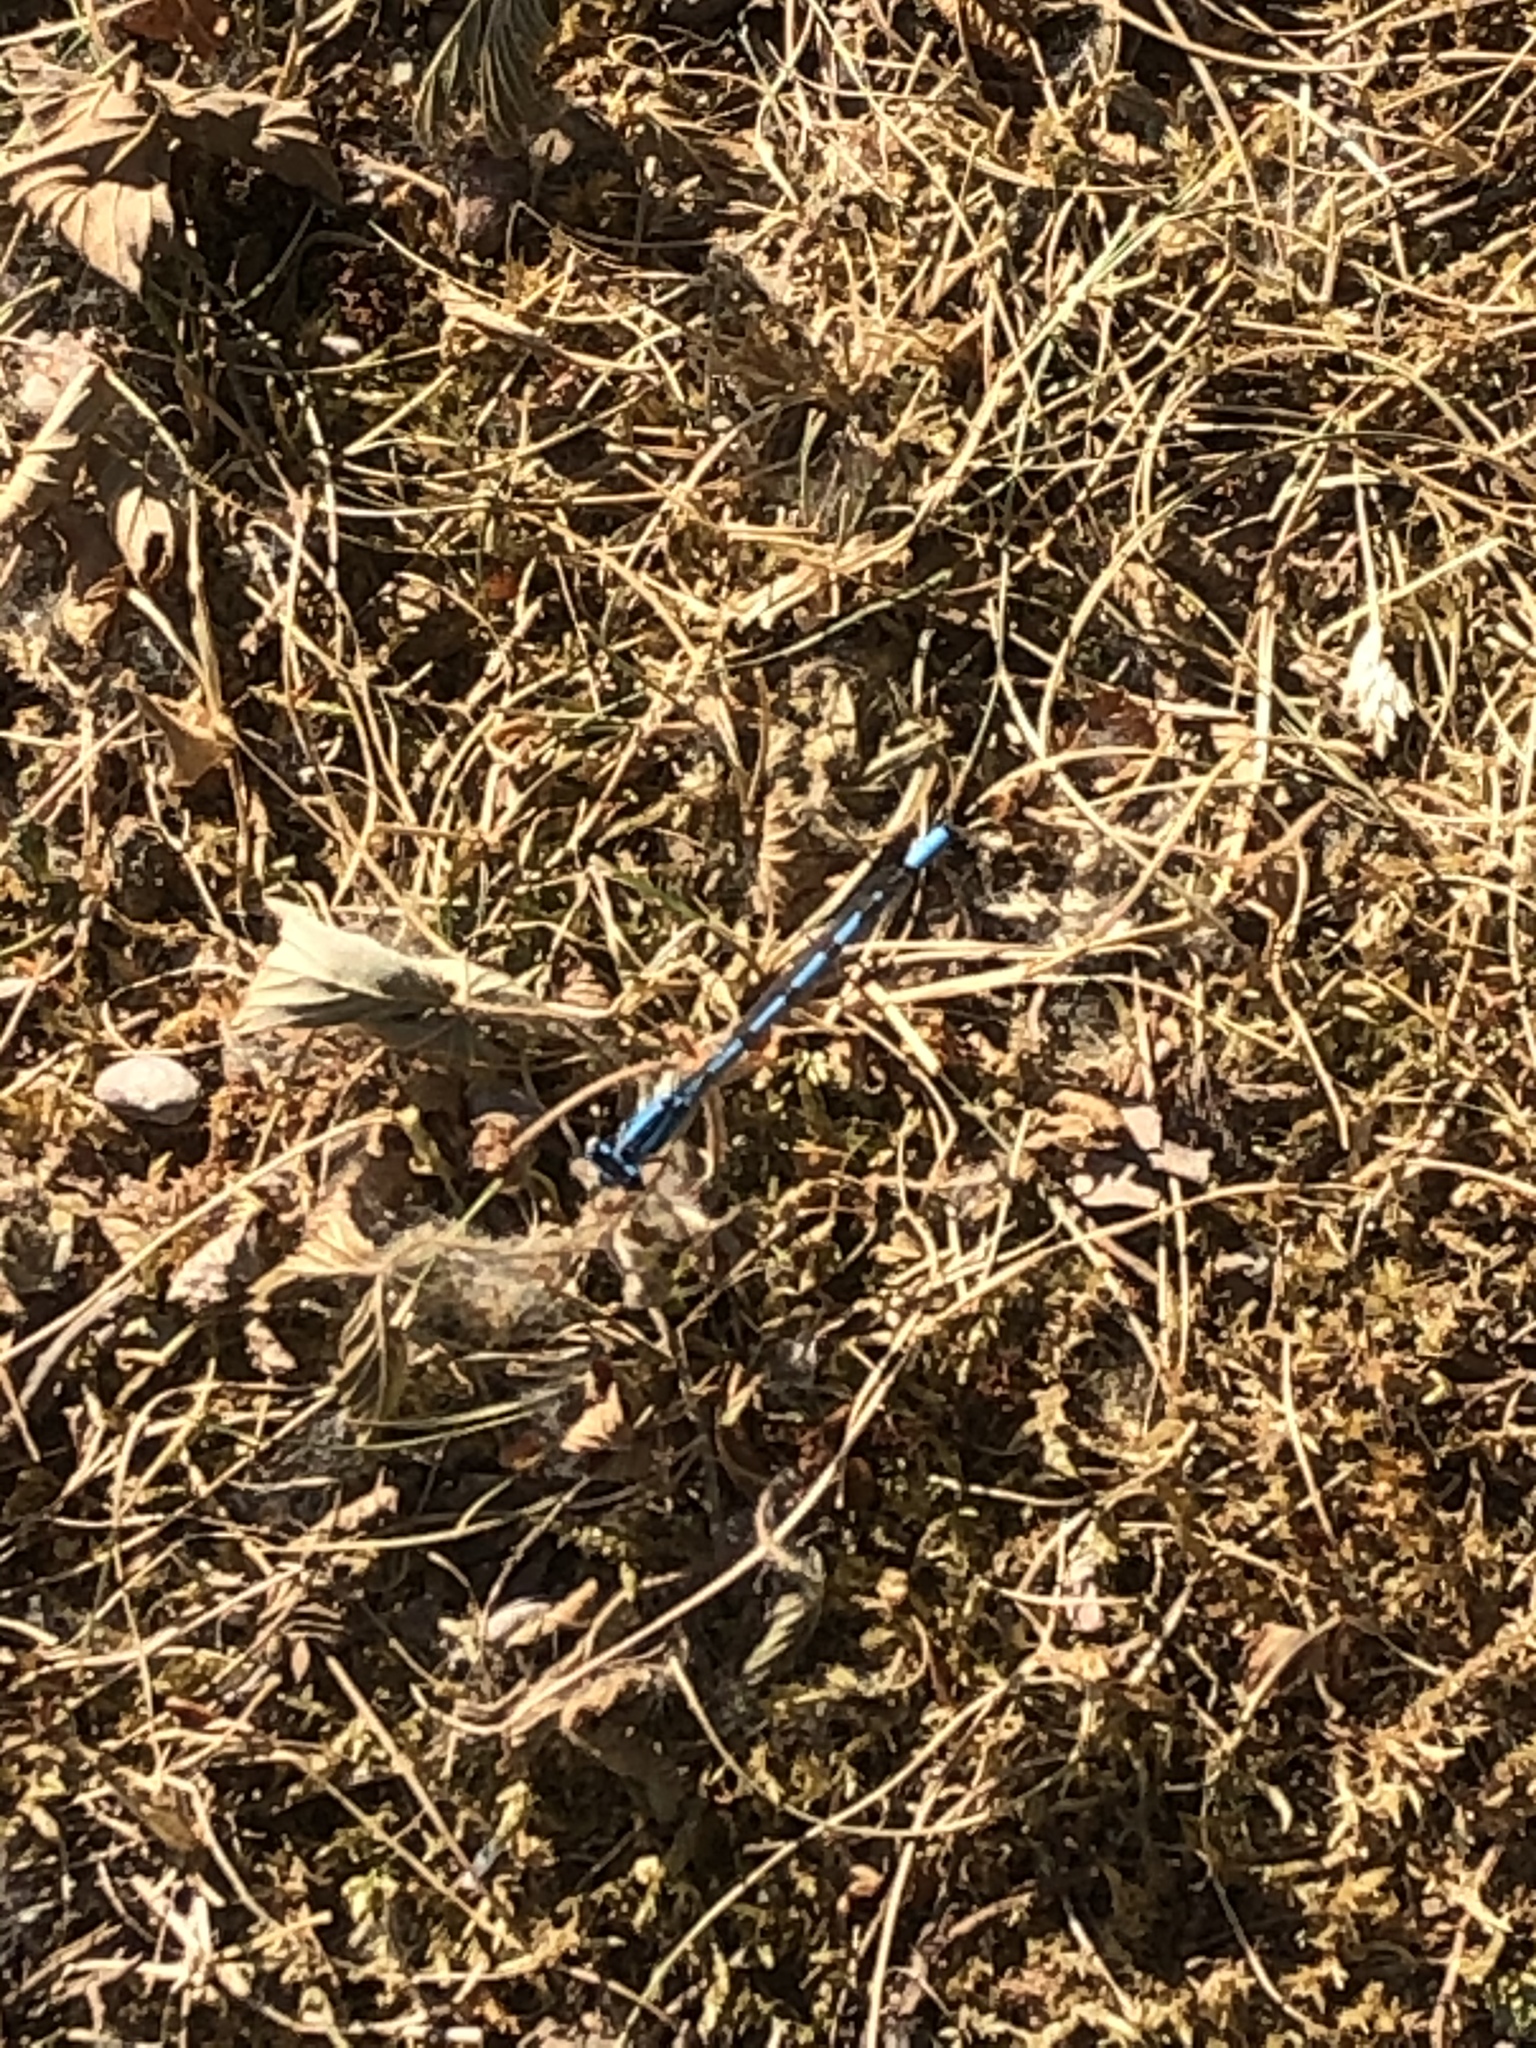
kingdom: Animalia
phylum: Arthropoda
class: Insecta
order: Odonata
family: Coenagrionidae
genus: Enallagma
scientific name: Enallagma cyathigerum
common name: Common blue damselfly
